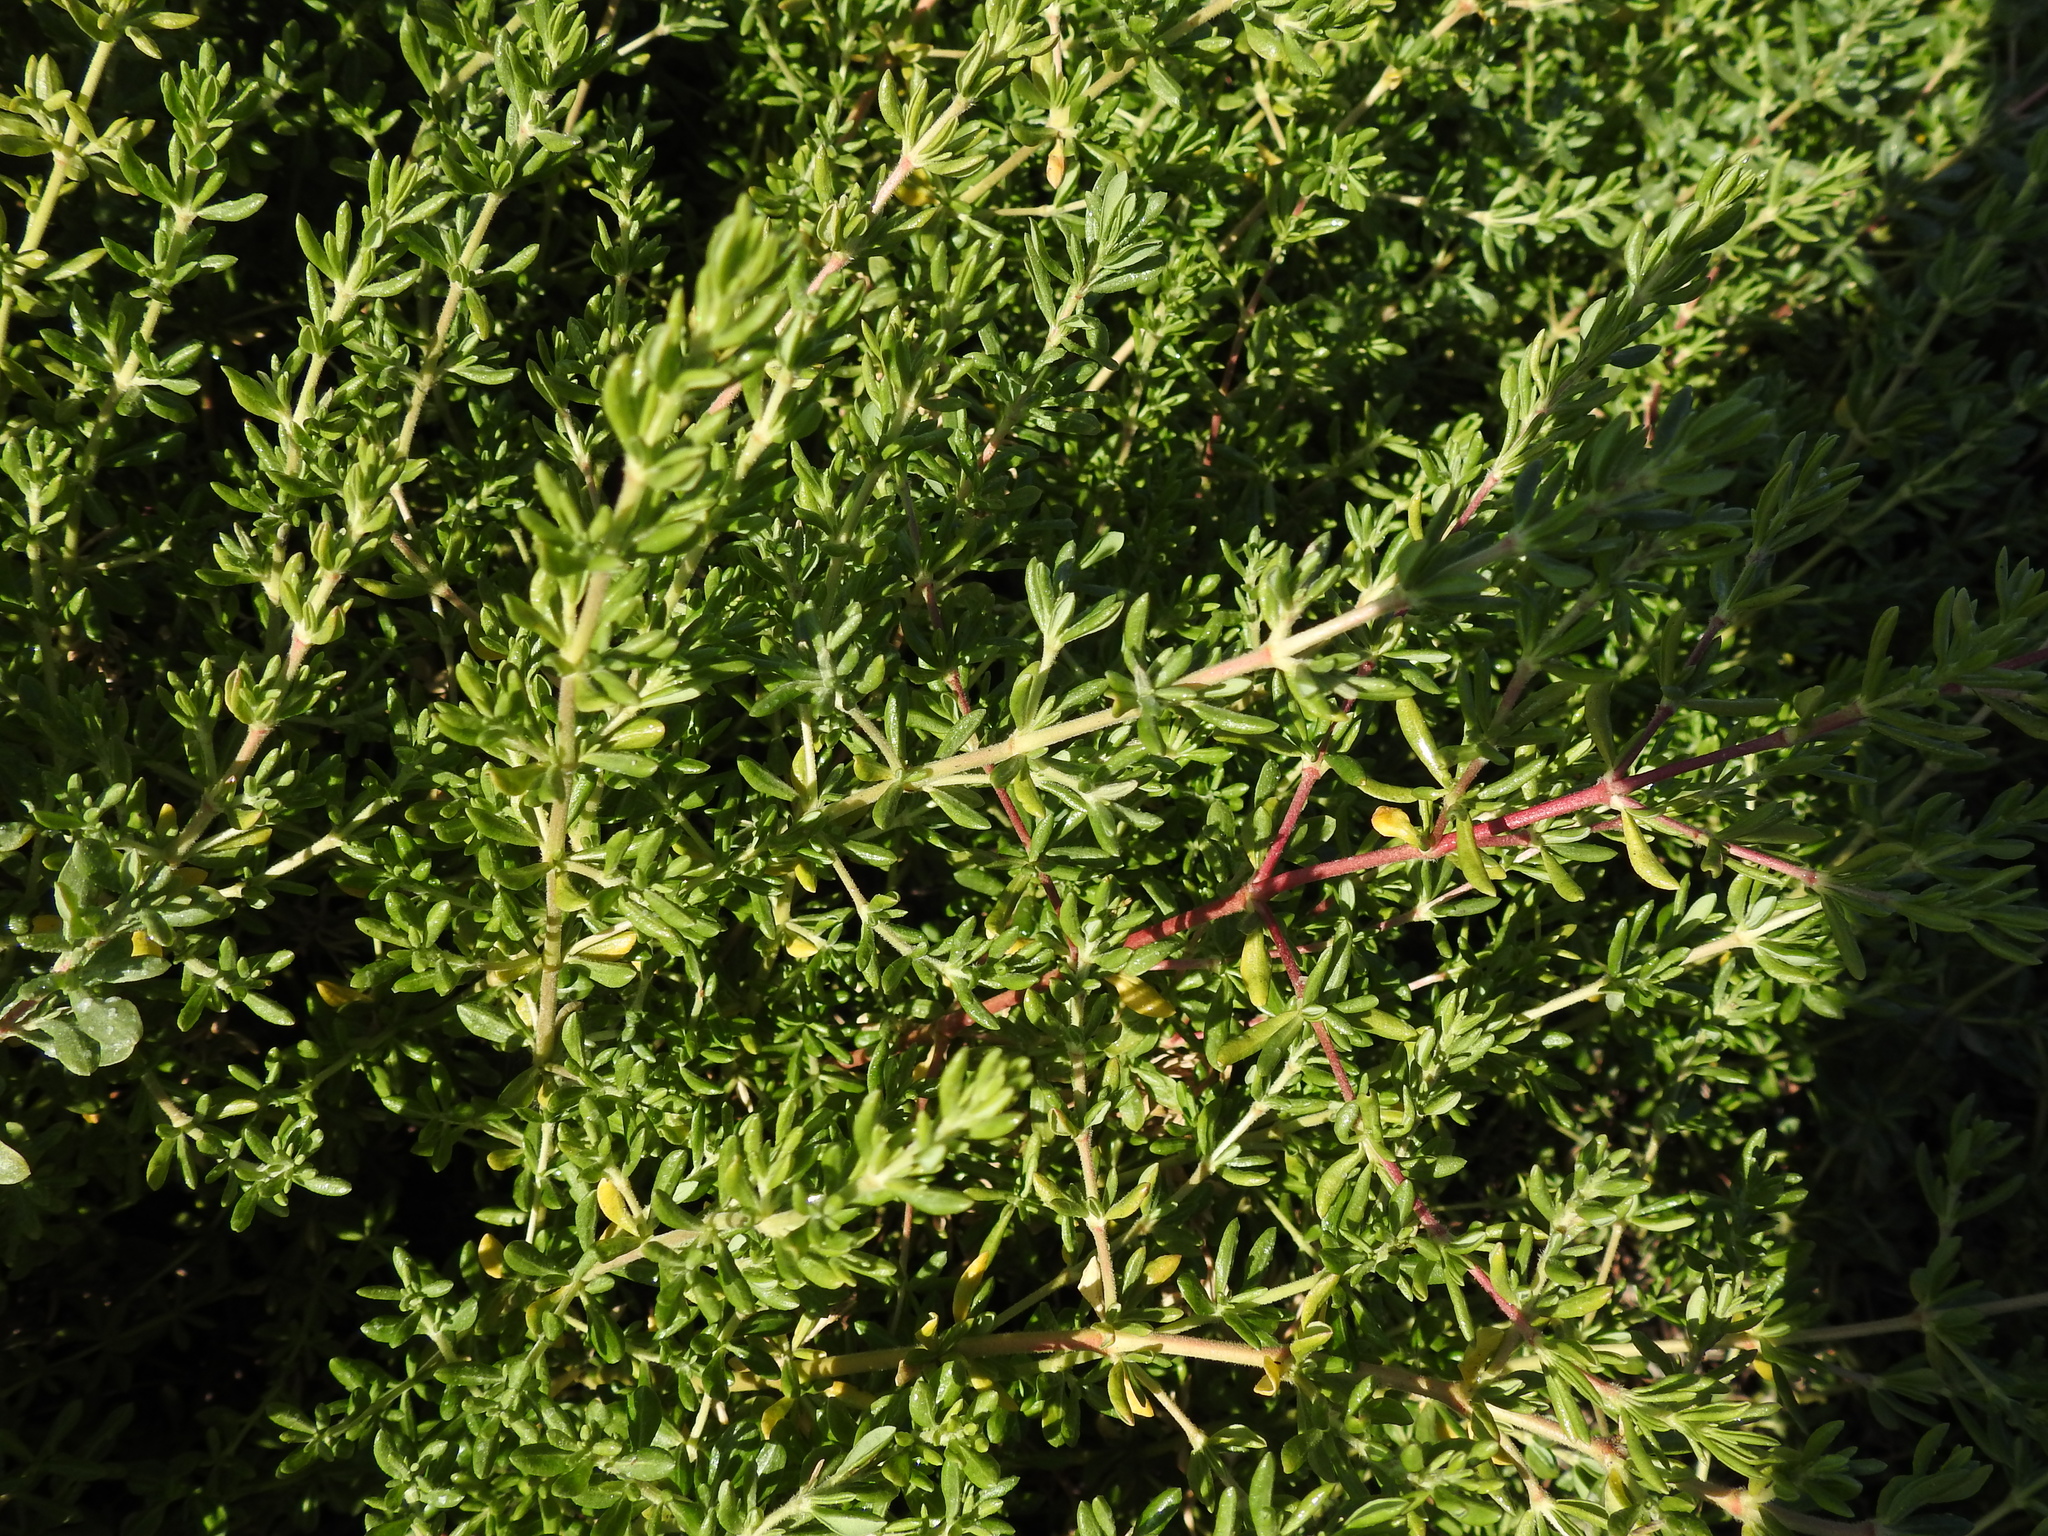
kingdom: Plantae
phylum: Tracheophyta
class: Magnoliopsida
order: Caryophyllales
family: Frankeniaceae
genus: Frankenia
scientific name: Frankenia salina
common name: Alkali seaheath
